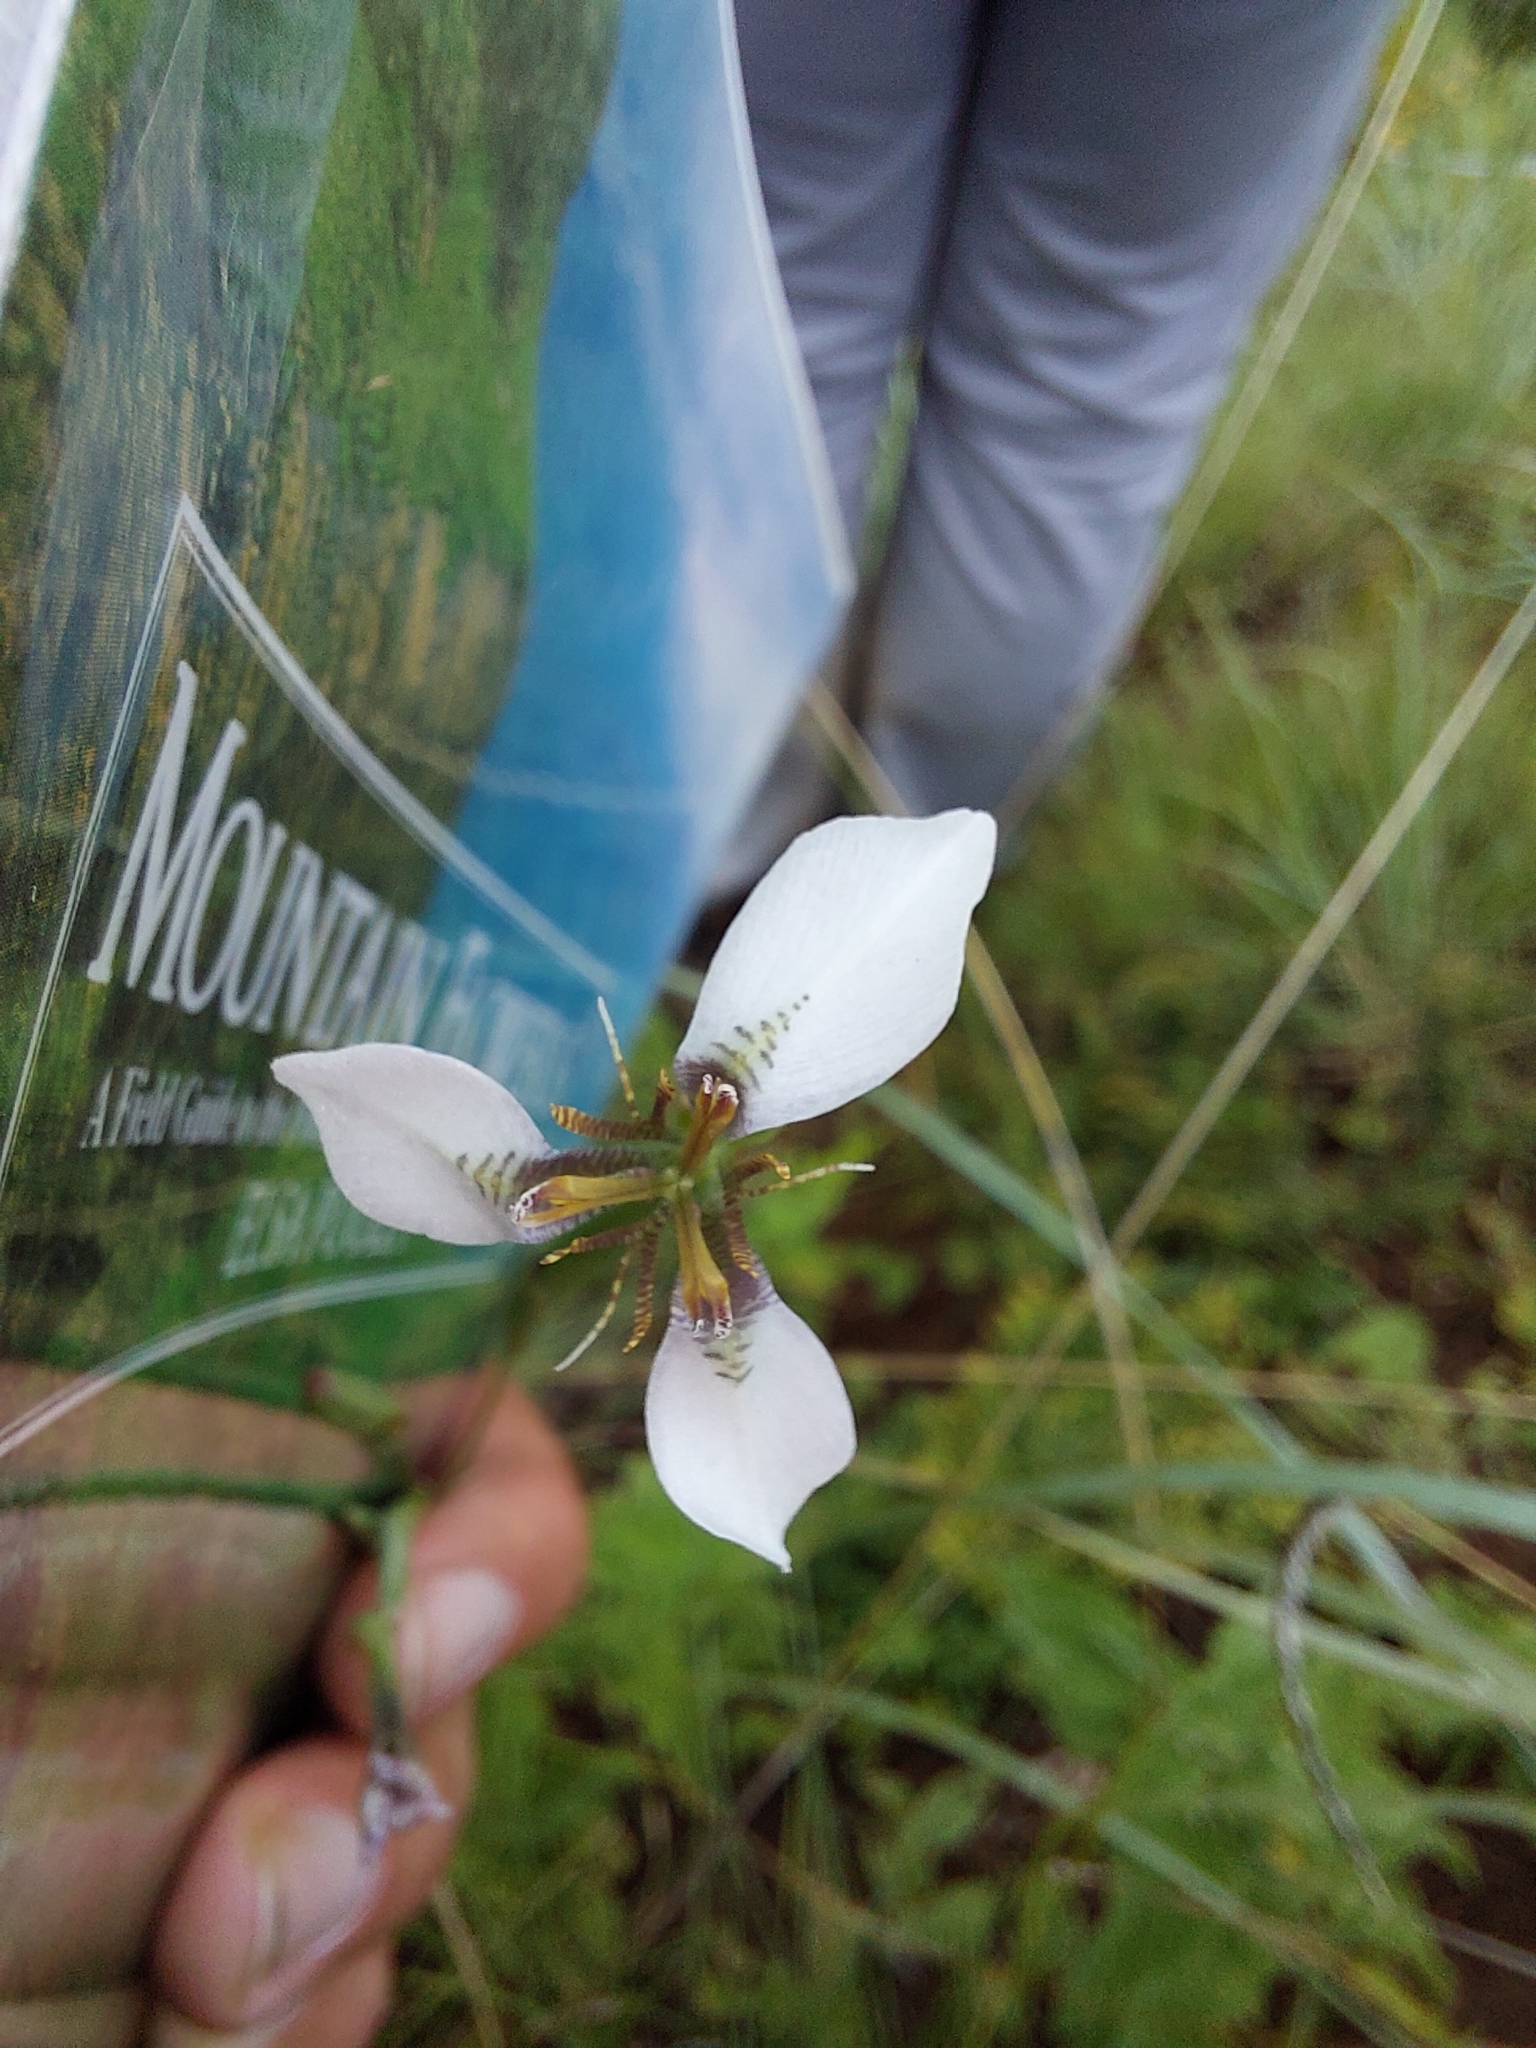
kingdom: Plantae
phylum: Tracheophyta
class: Liliopsida
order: Asparagales
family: Iridaceae
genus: Moraea
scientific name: Moraea brevistyla
